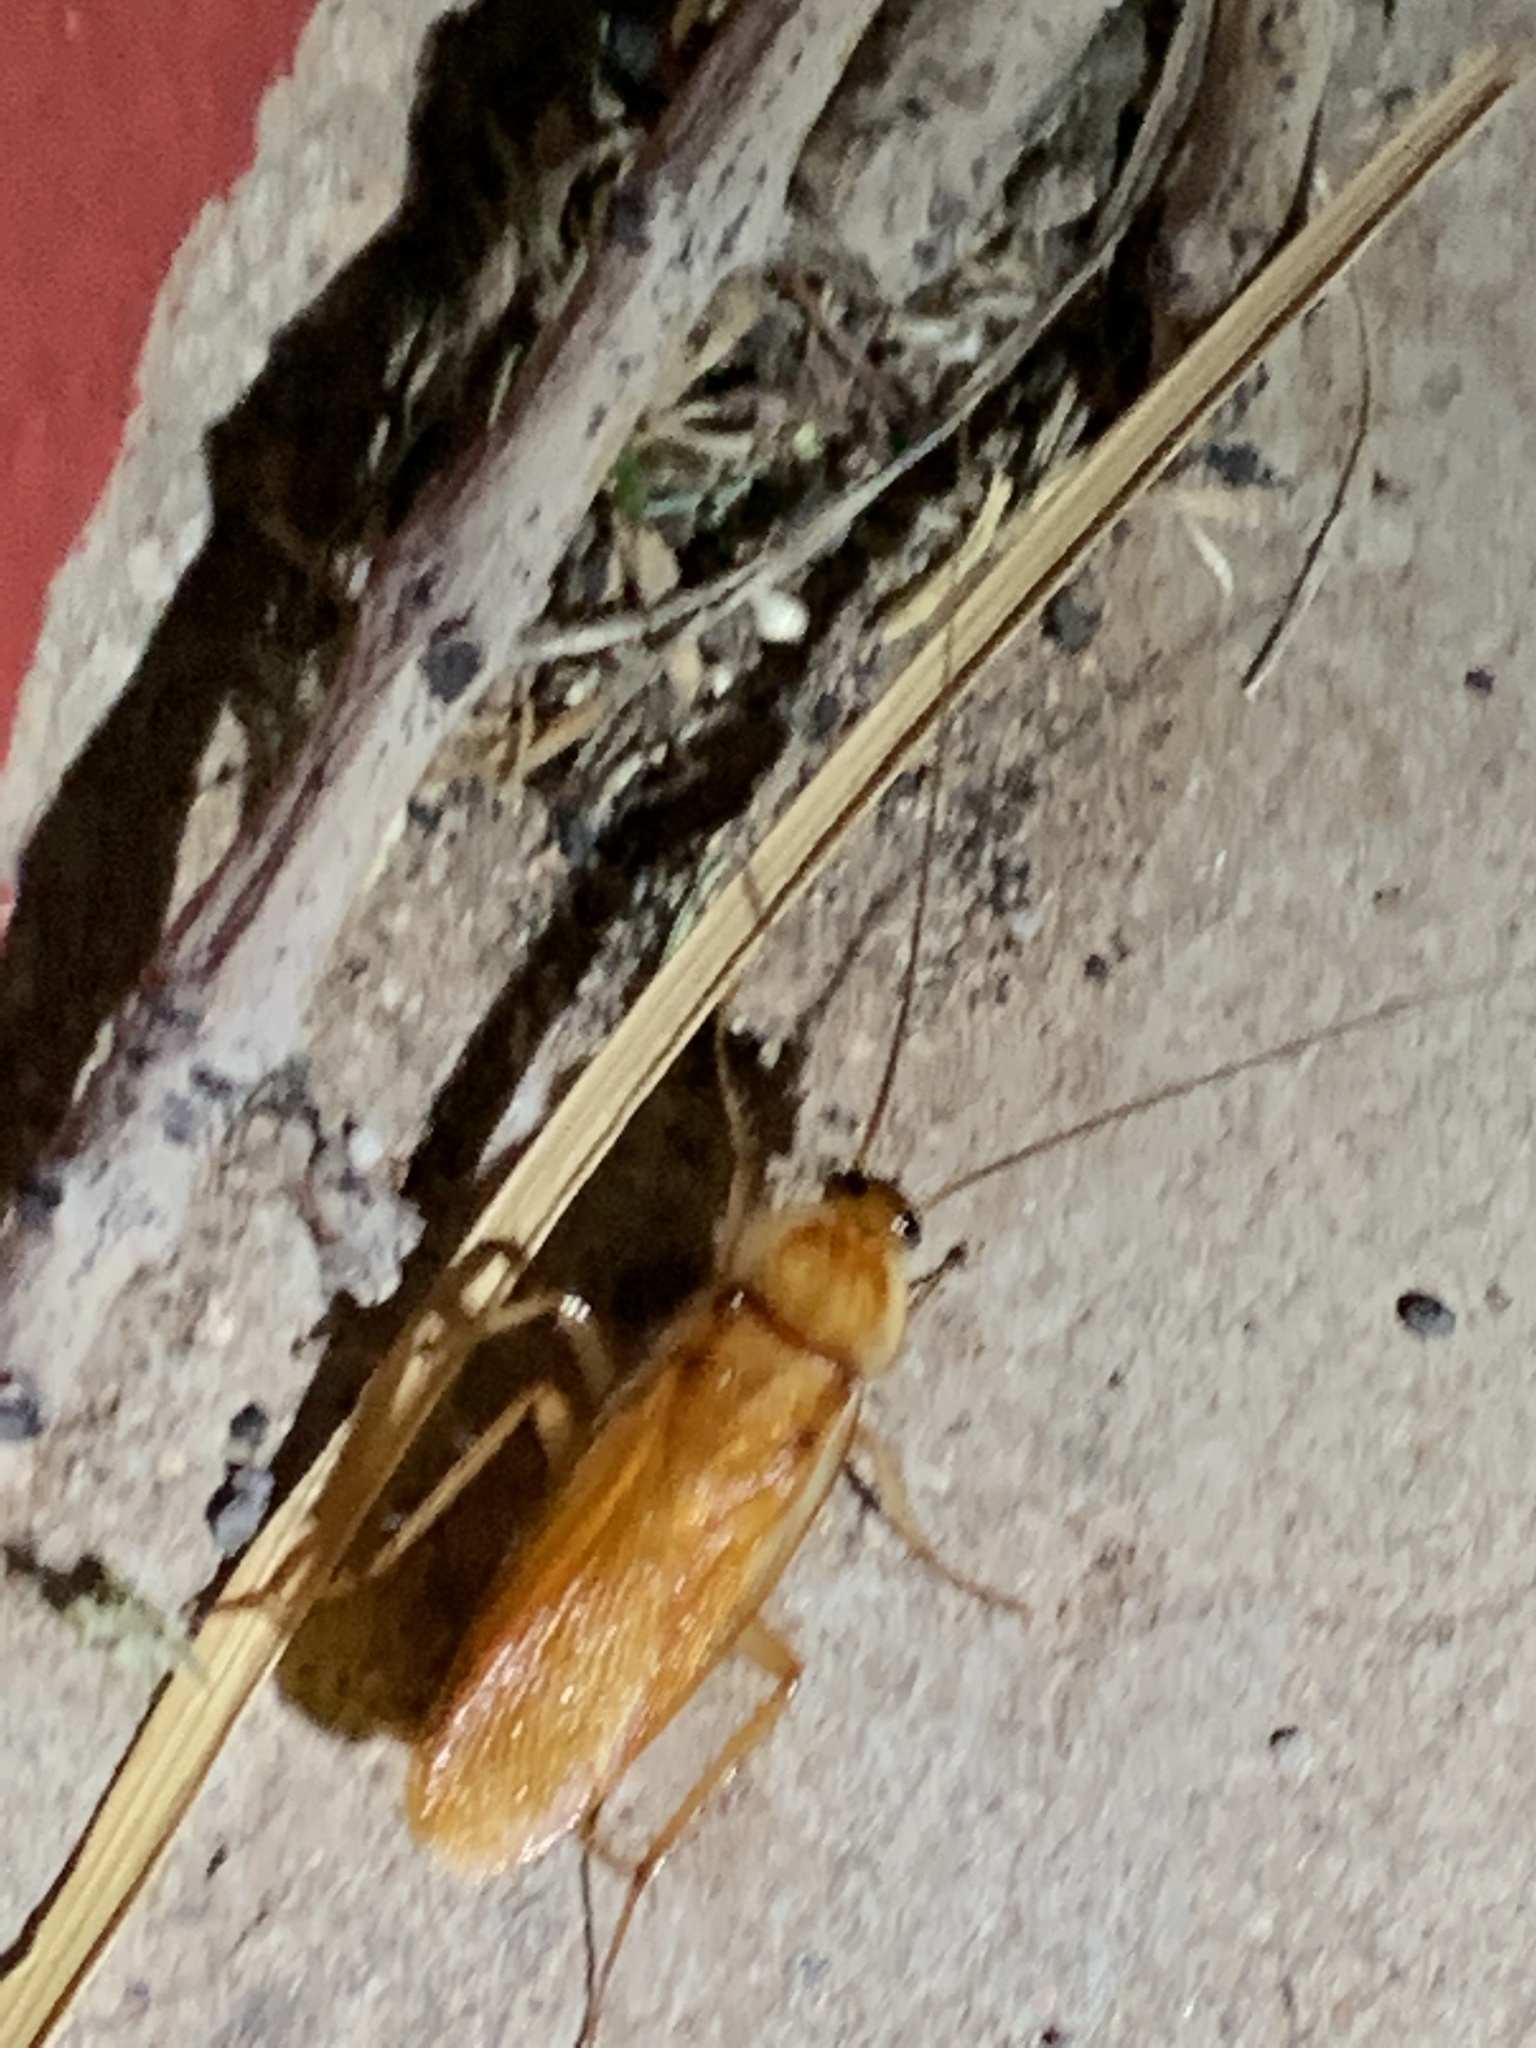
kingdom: Animalia
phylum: Arthropoda
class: Insecta
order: Blattodea
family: Blattidae
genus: Periplaneta
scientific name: Periplaneta lateralis
